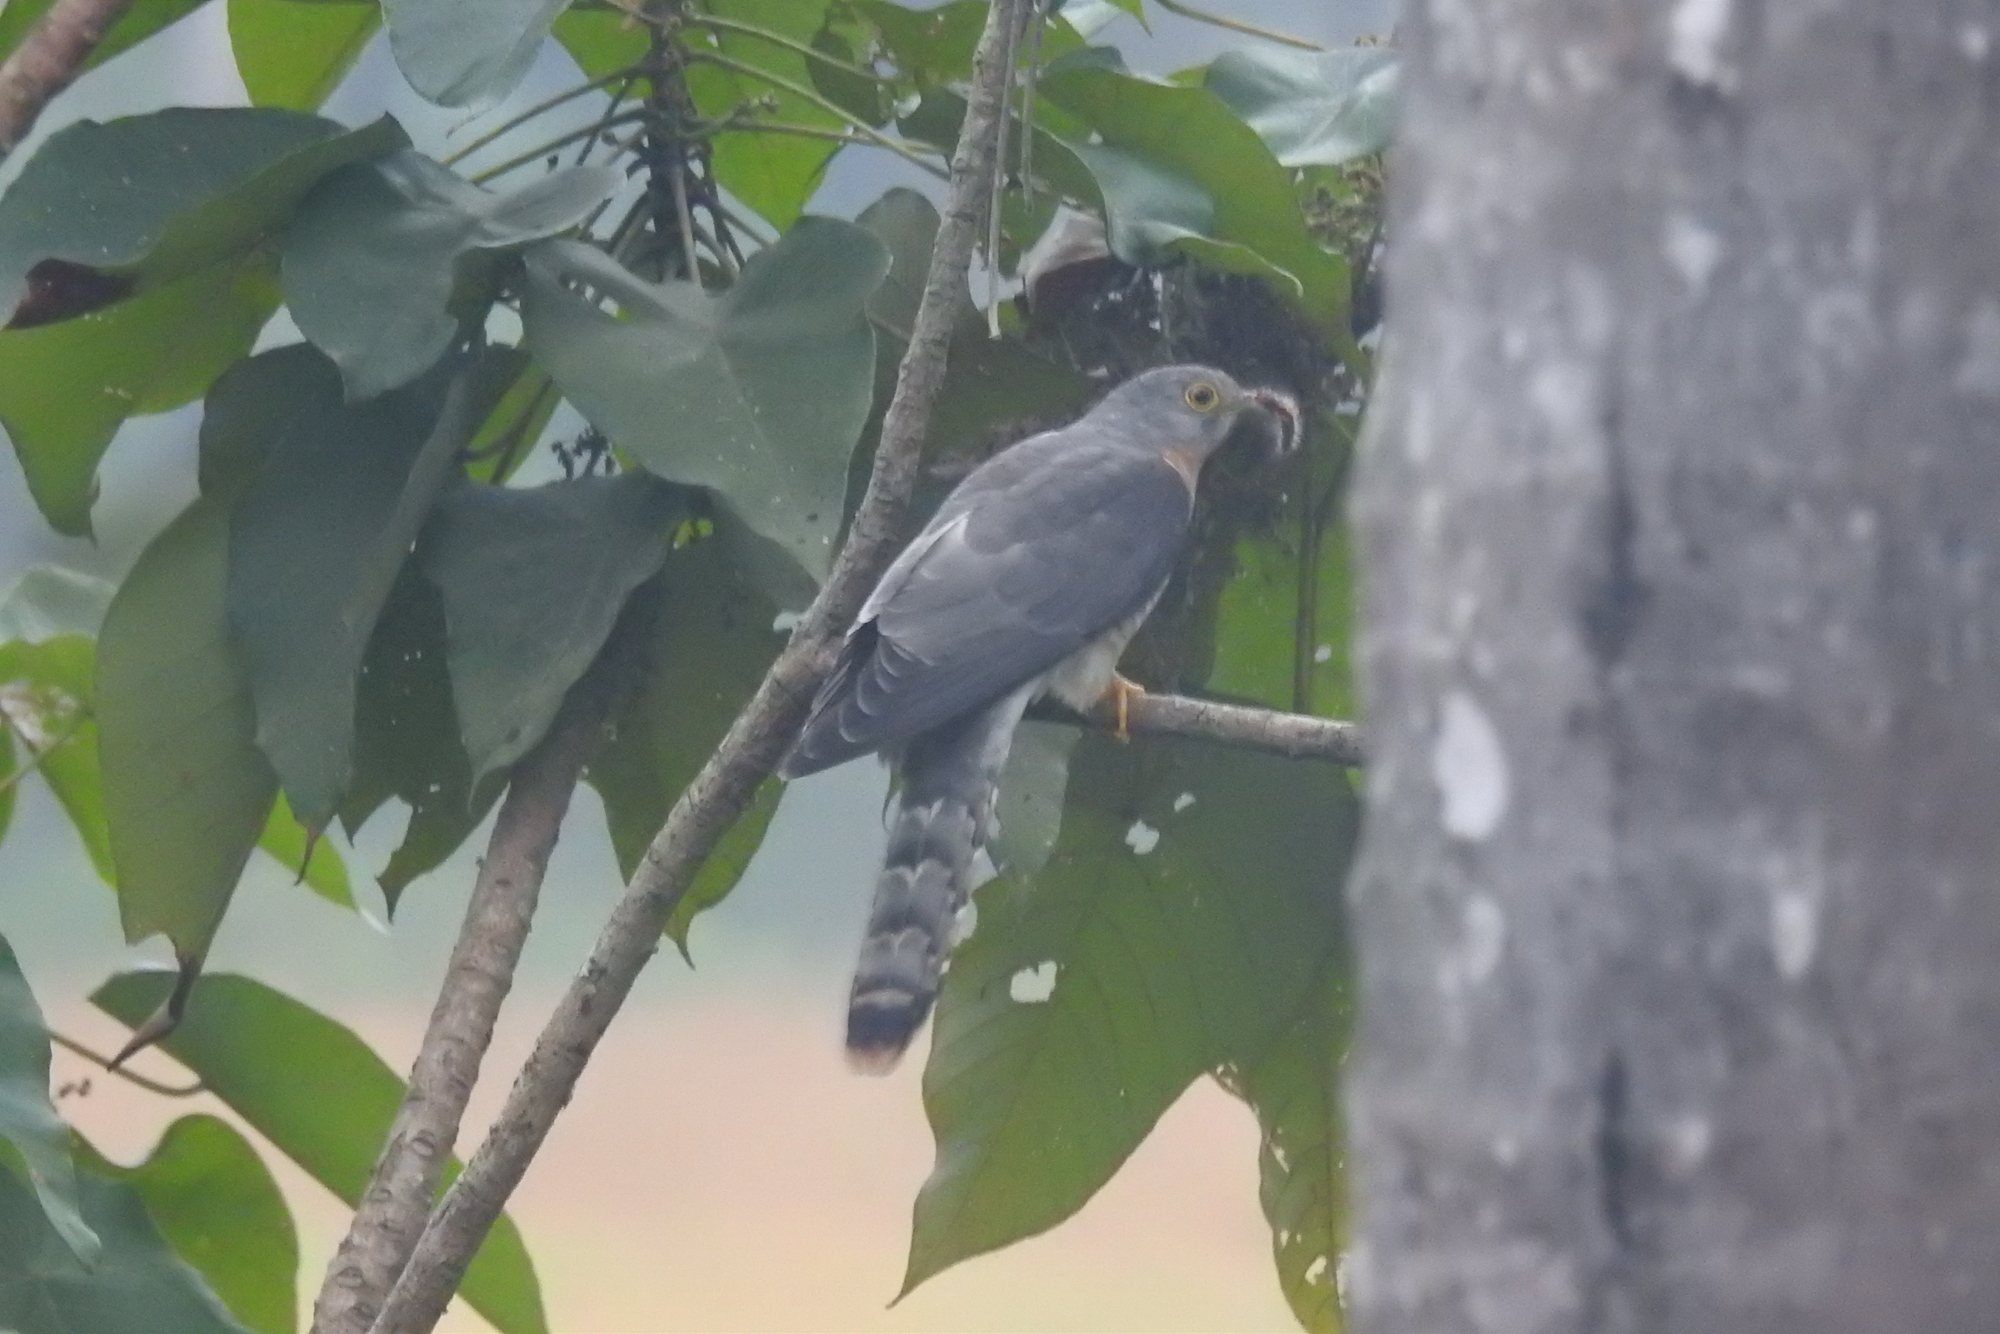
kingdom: Animalia
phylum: Chordata
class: Aves
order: Cuculiformes
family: Cuculidae
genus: Cuculus
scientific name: Cuculus varius
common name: Common hawk cuckoo
